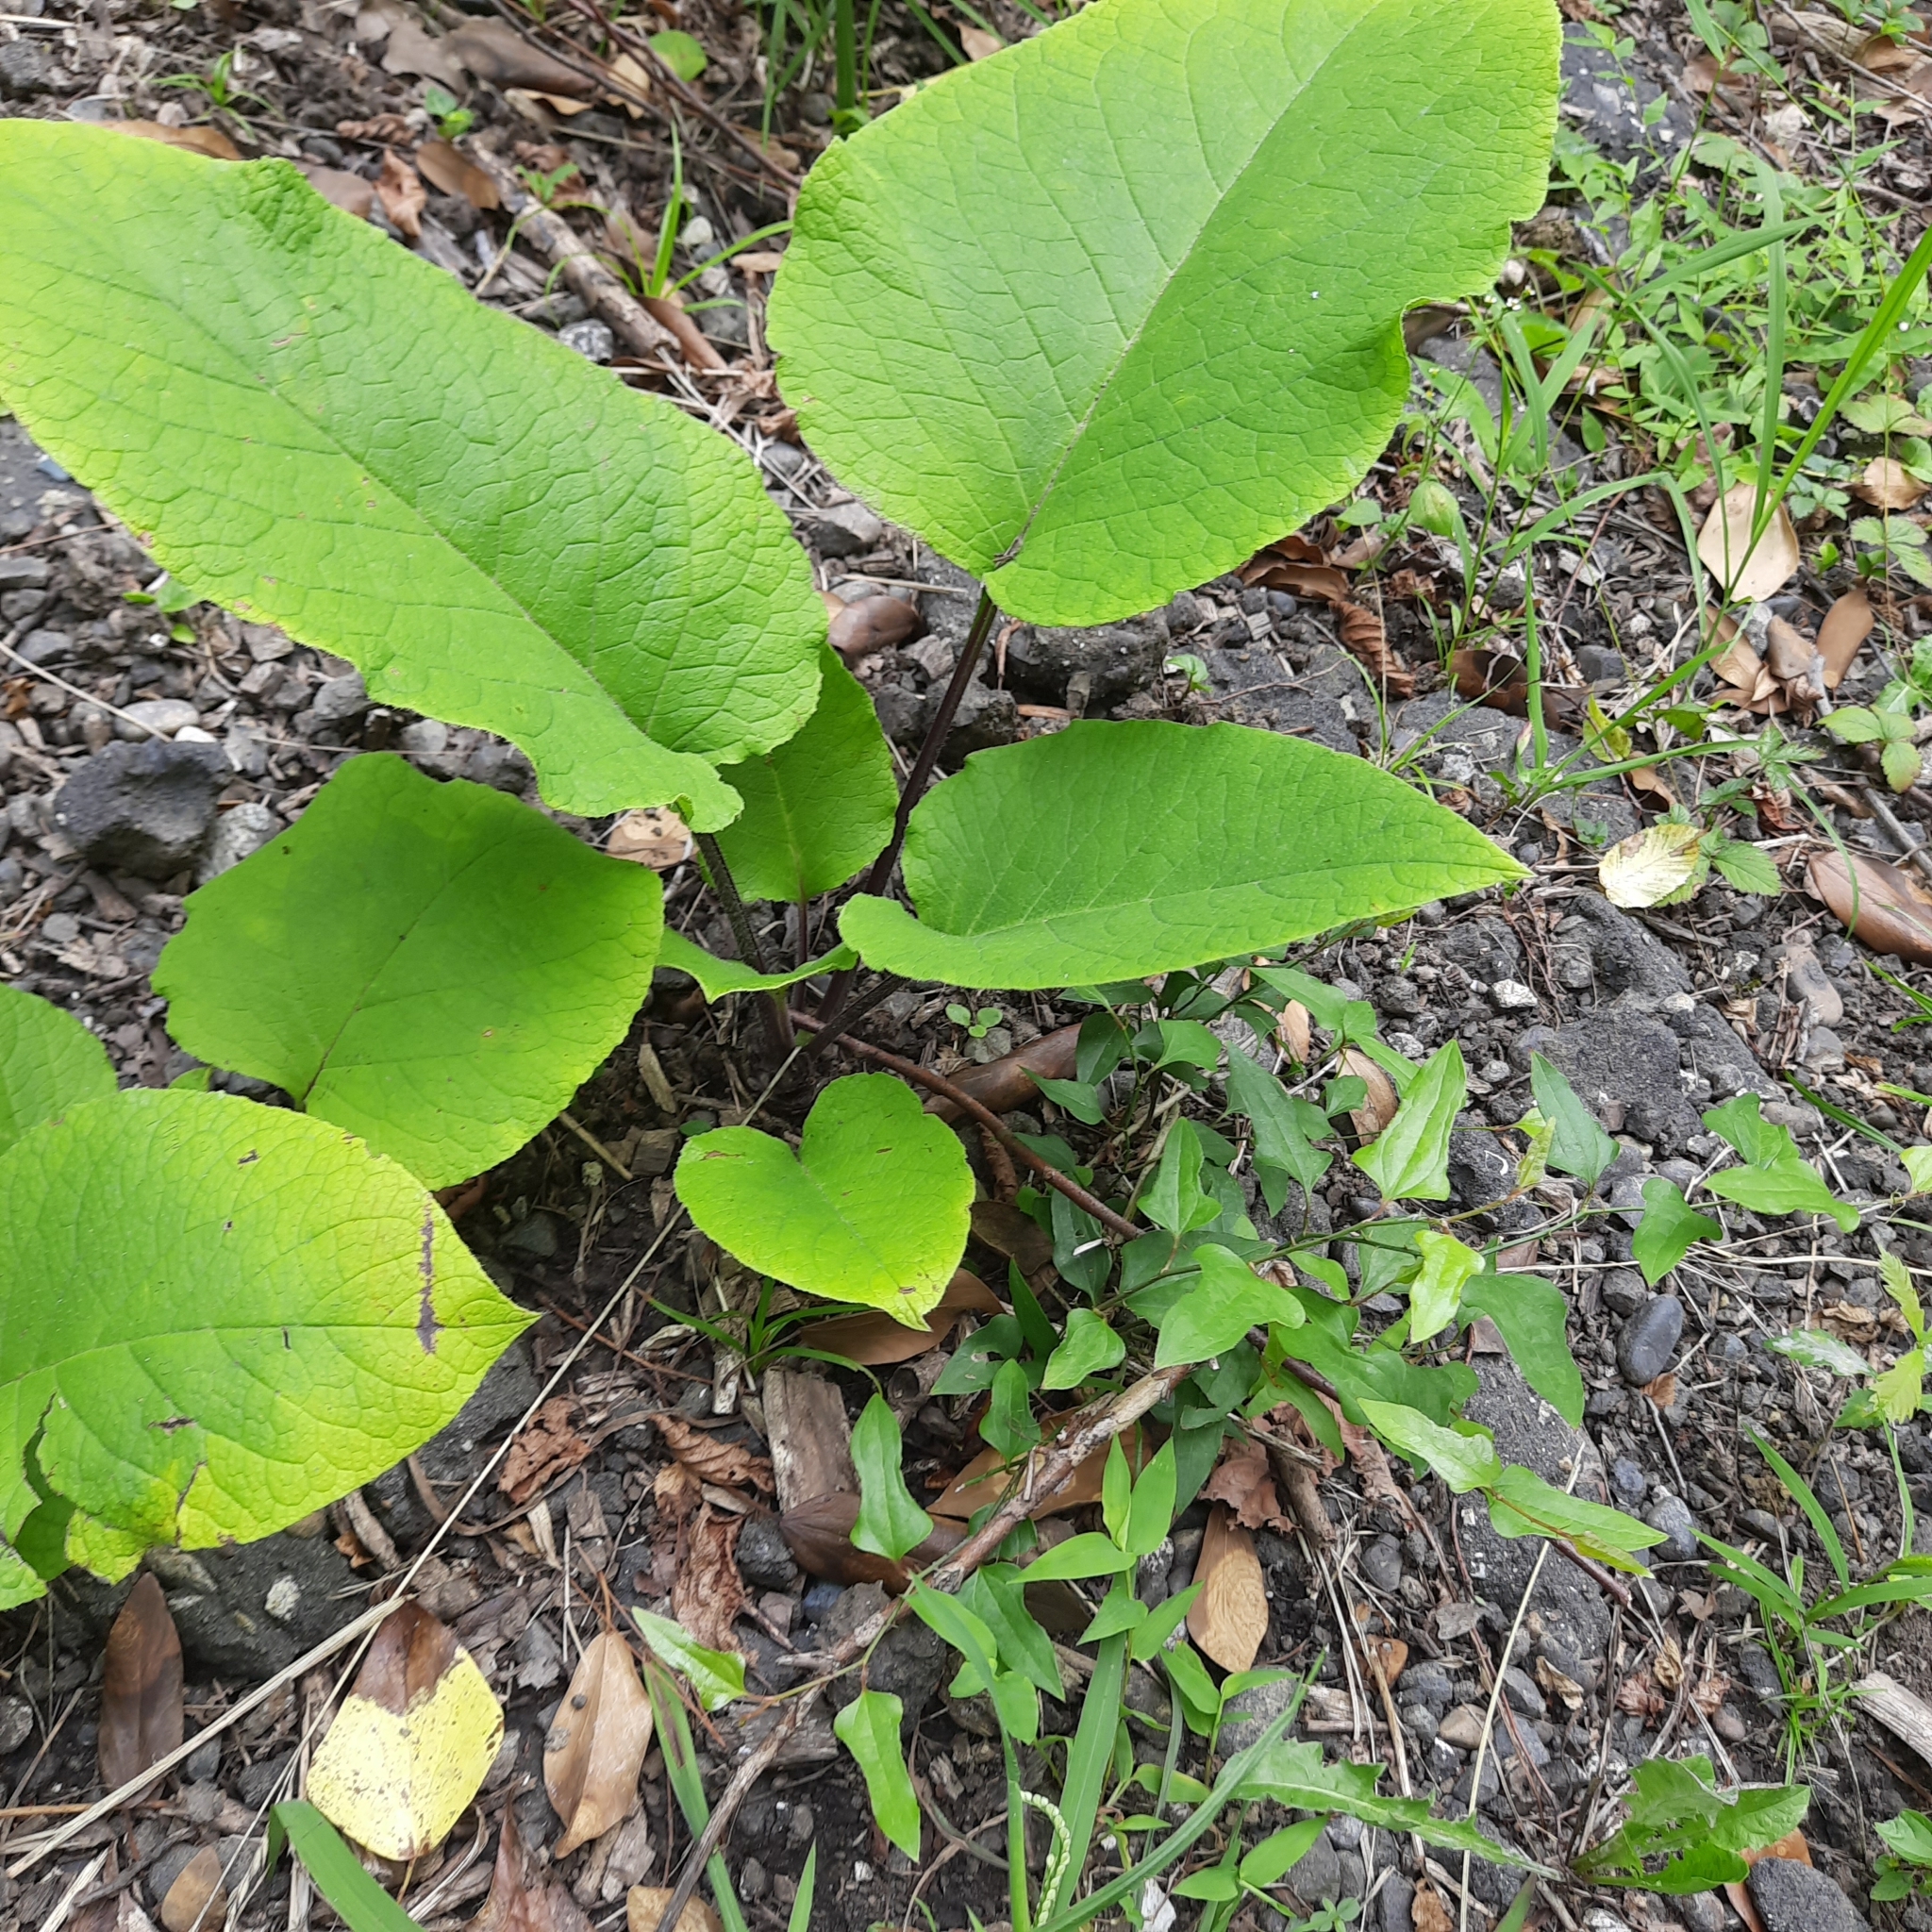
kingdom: Plantae
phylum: Tracheophyta
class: Magnoliopsida
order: Boraginales
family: Boraginaceae
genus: Trachystemon
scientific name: Trachystemon orientale
